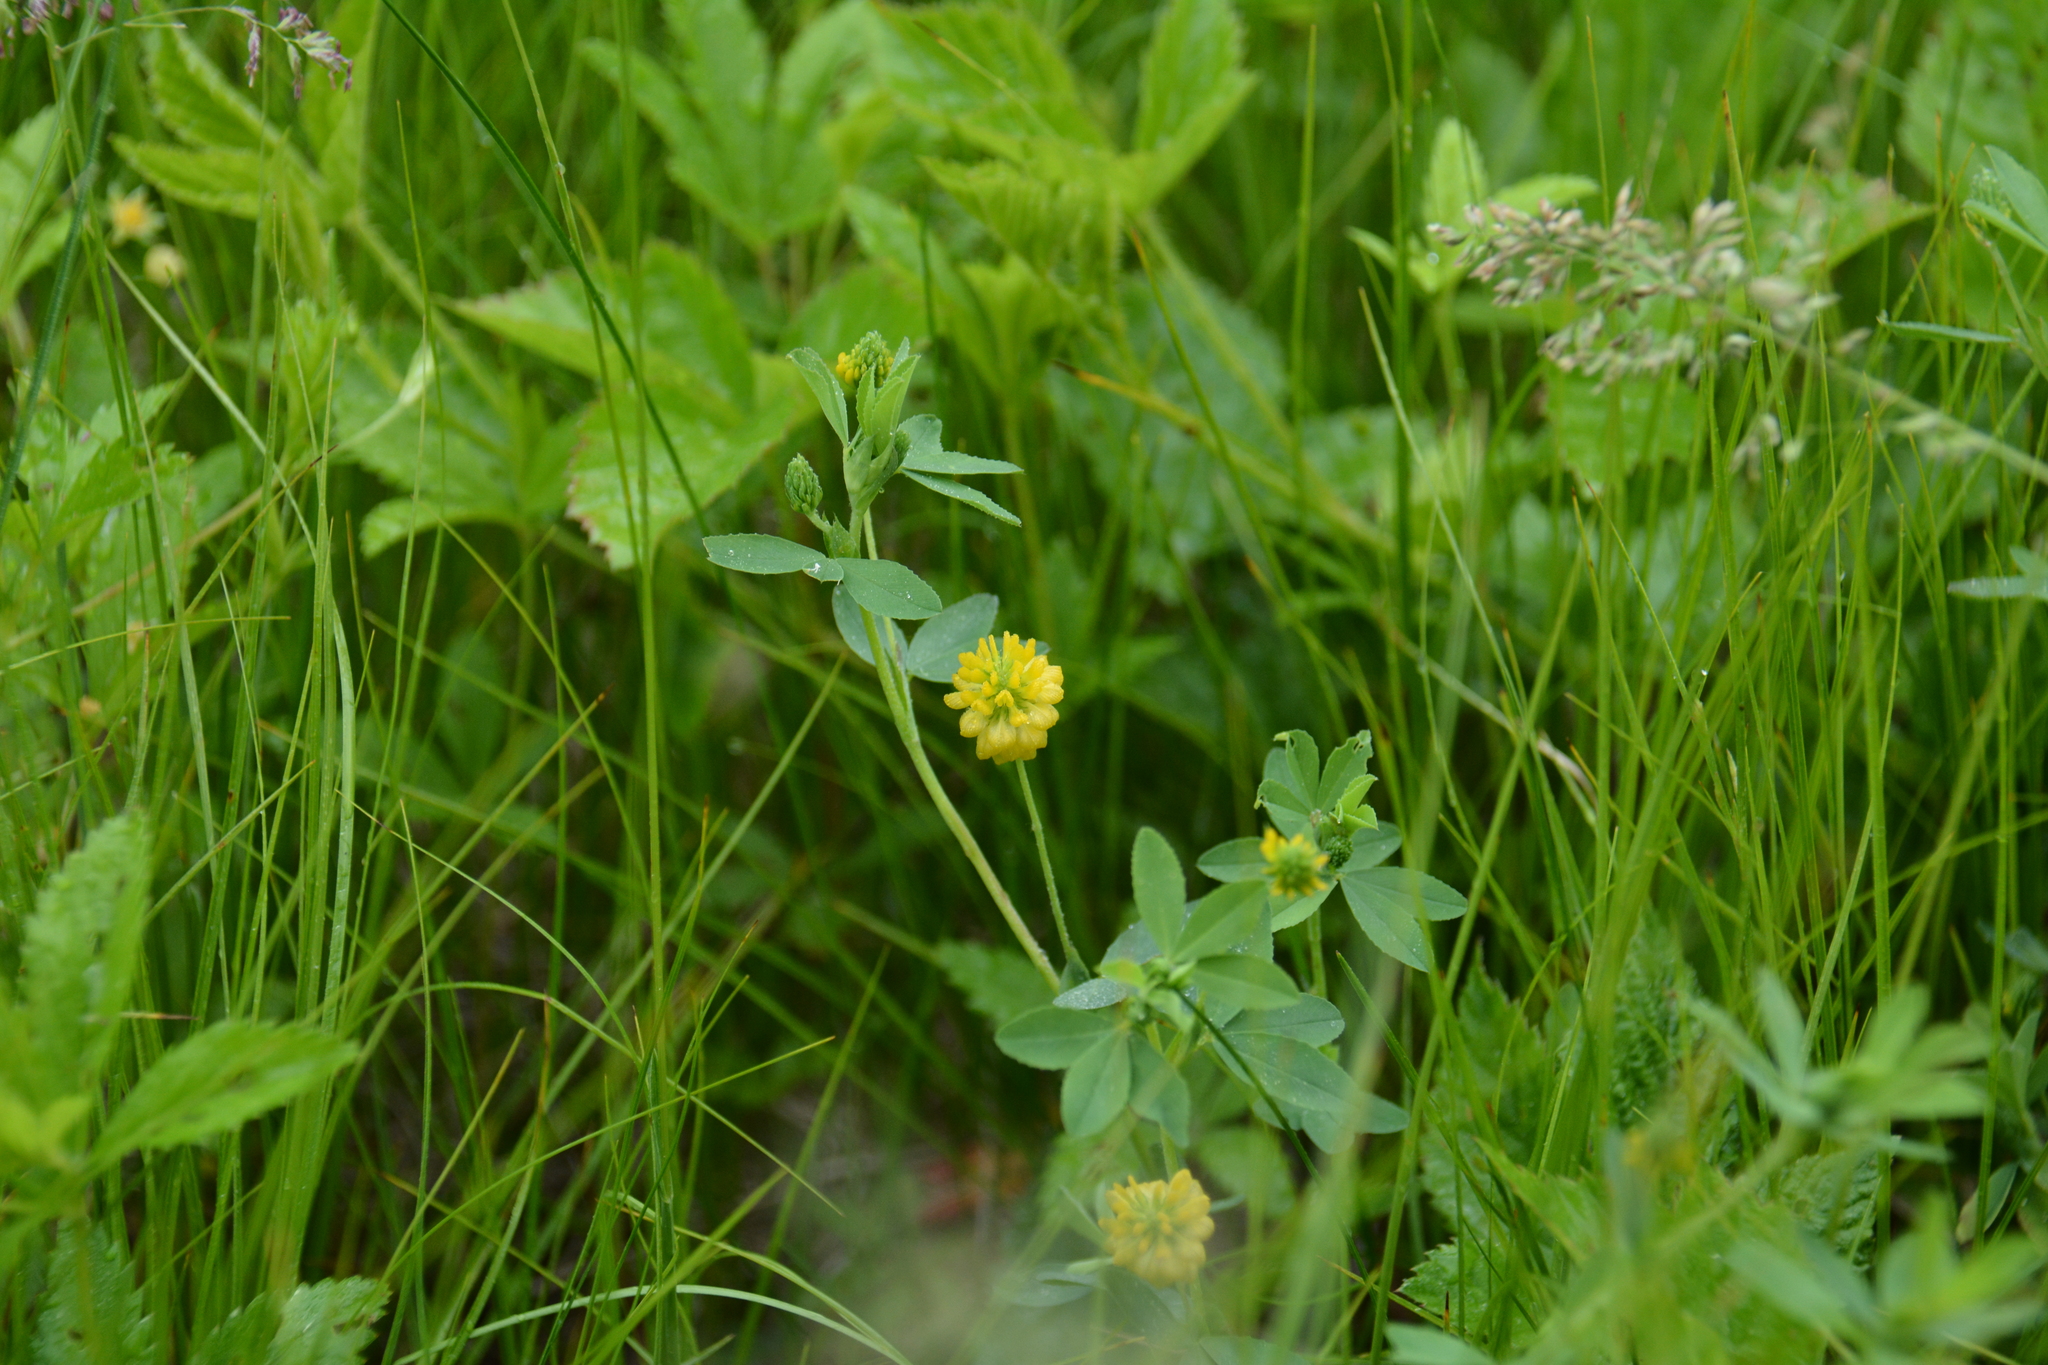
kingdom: Plantae
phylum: Tracheophyta
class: Magnoliopsida
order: Fabales
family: Fabaceae
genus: Trifolium
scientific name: Trifolium aureum
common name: Golden clover
